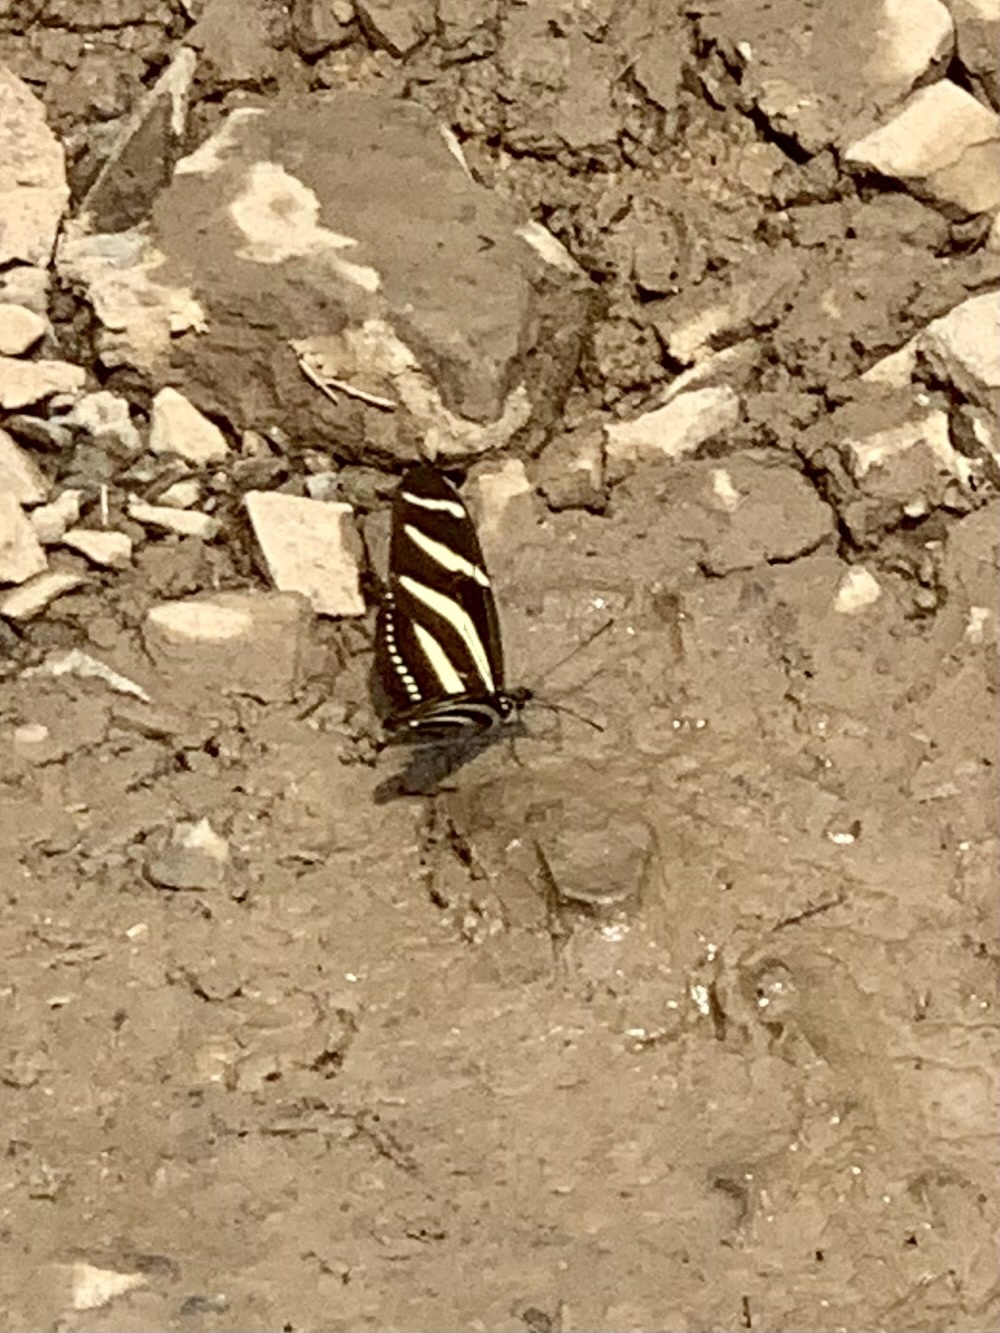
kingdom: Animalia
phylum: Arthropoda
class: Insecta
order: Lepidoptera
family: Nymphalidae
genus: Heliconius
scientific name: Heliconius charithonia
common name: Zebra long wing
